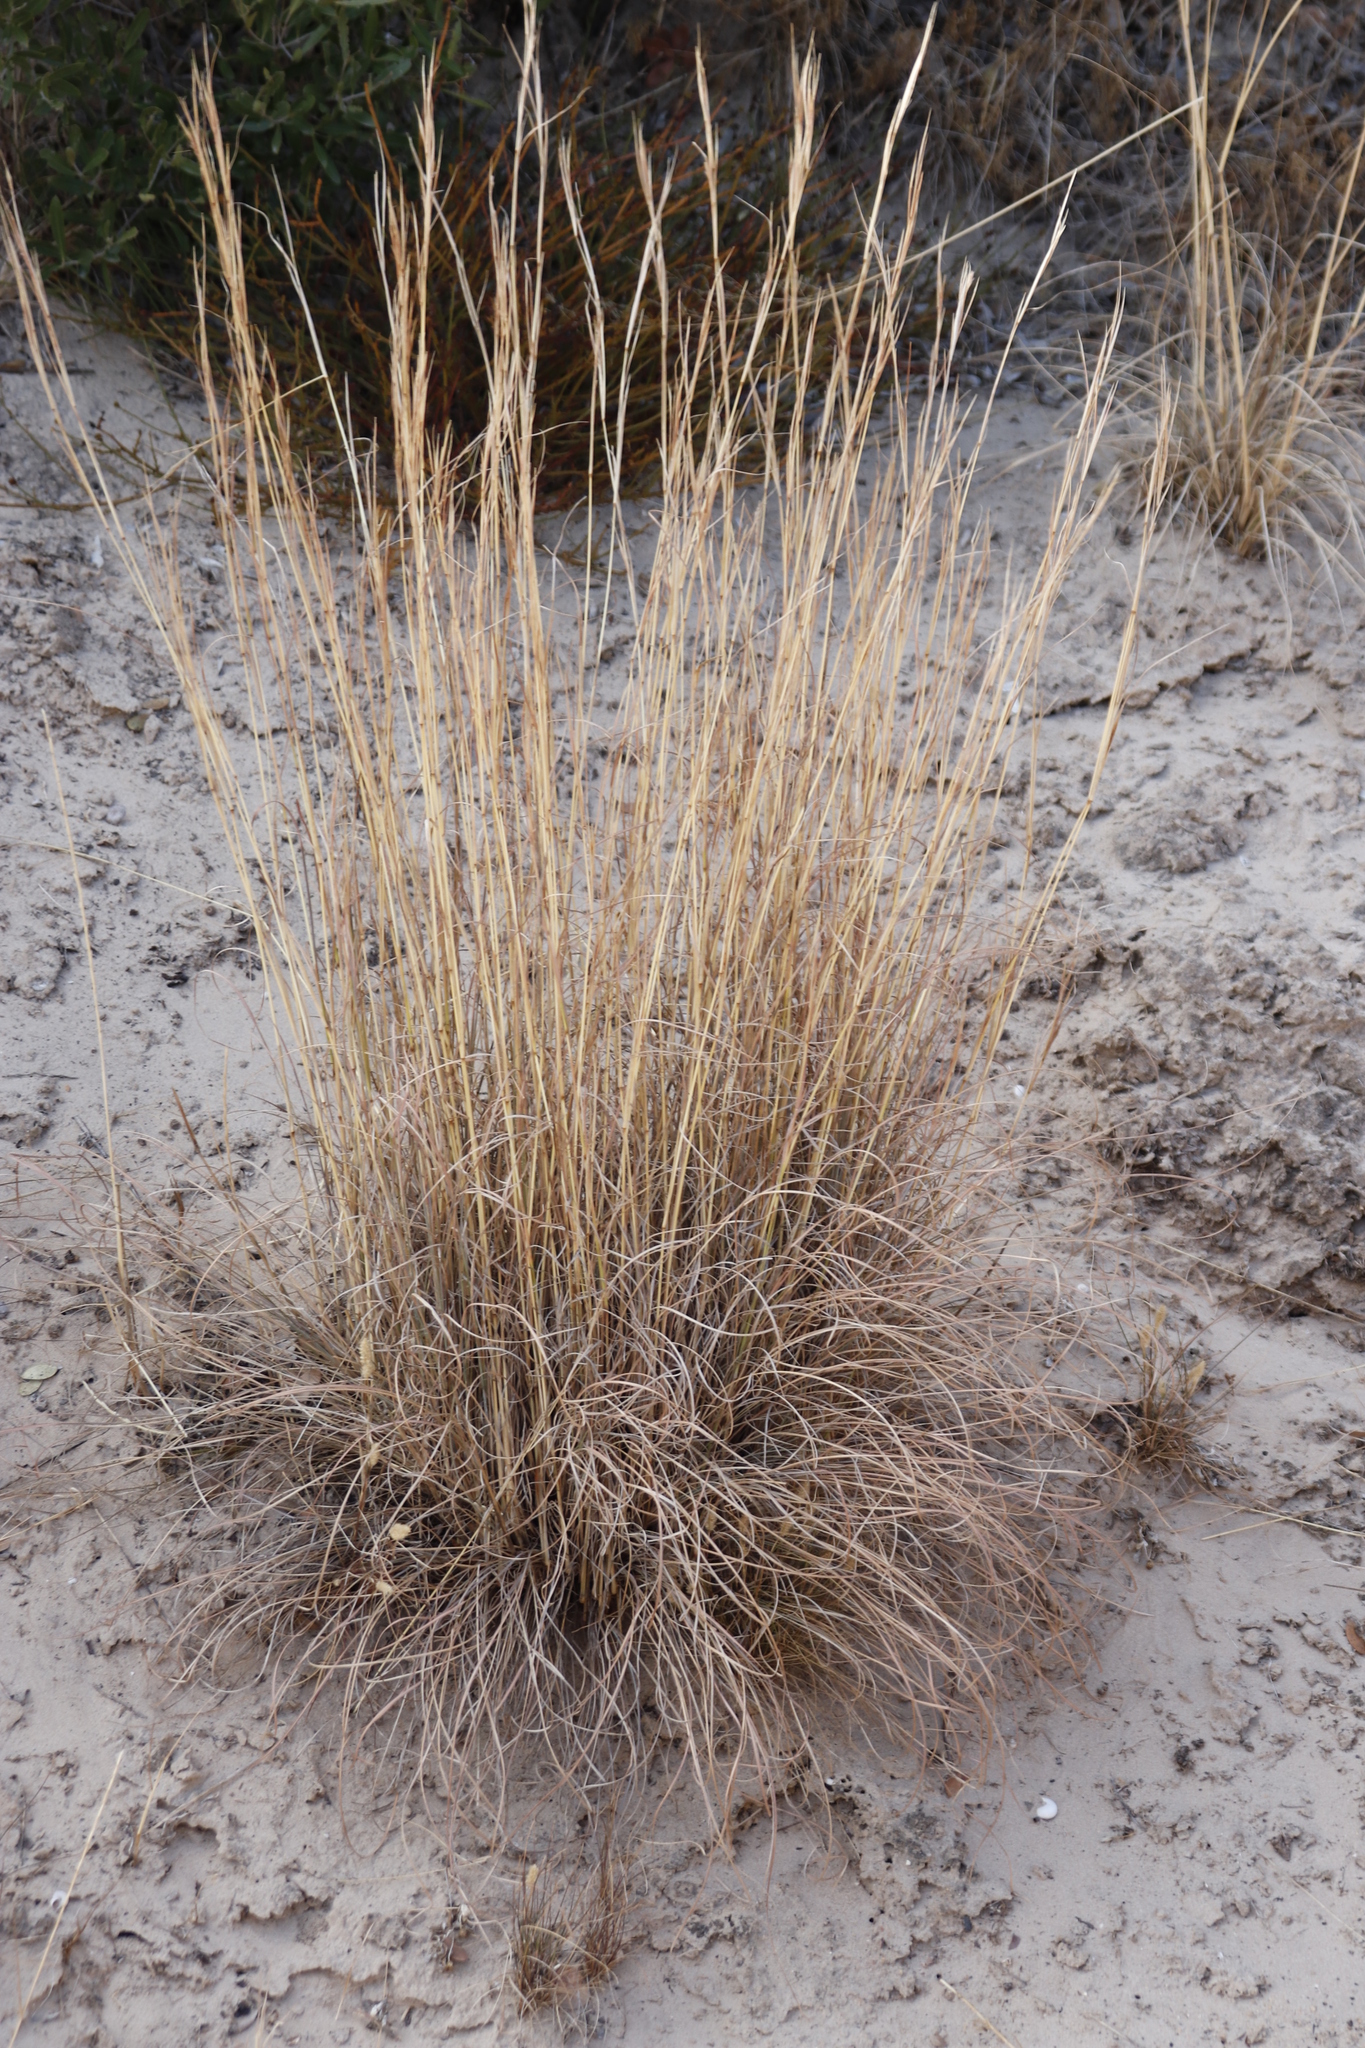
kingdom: Plantae
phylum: Tracheophyta
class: Liliopsida
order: Poales
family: Poaceae
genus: Hyparrhenia
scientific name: Hyparrhenia hirta
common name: Thatching grass
